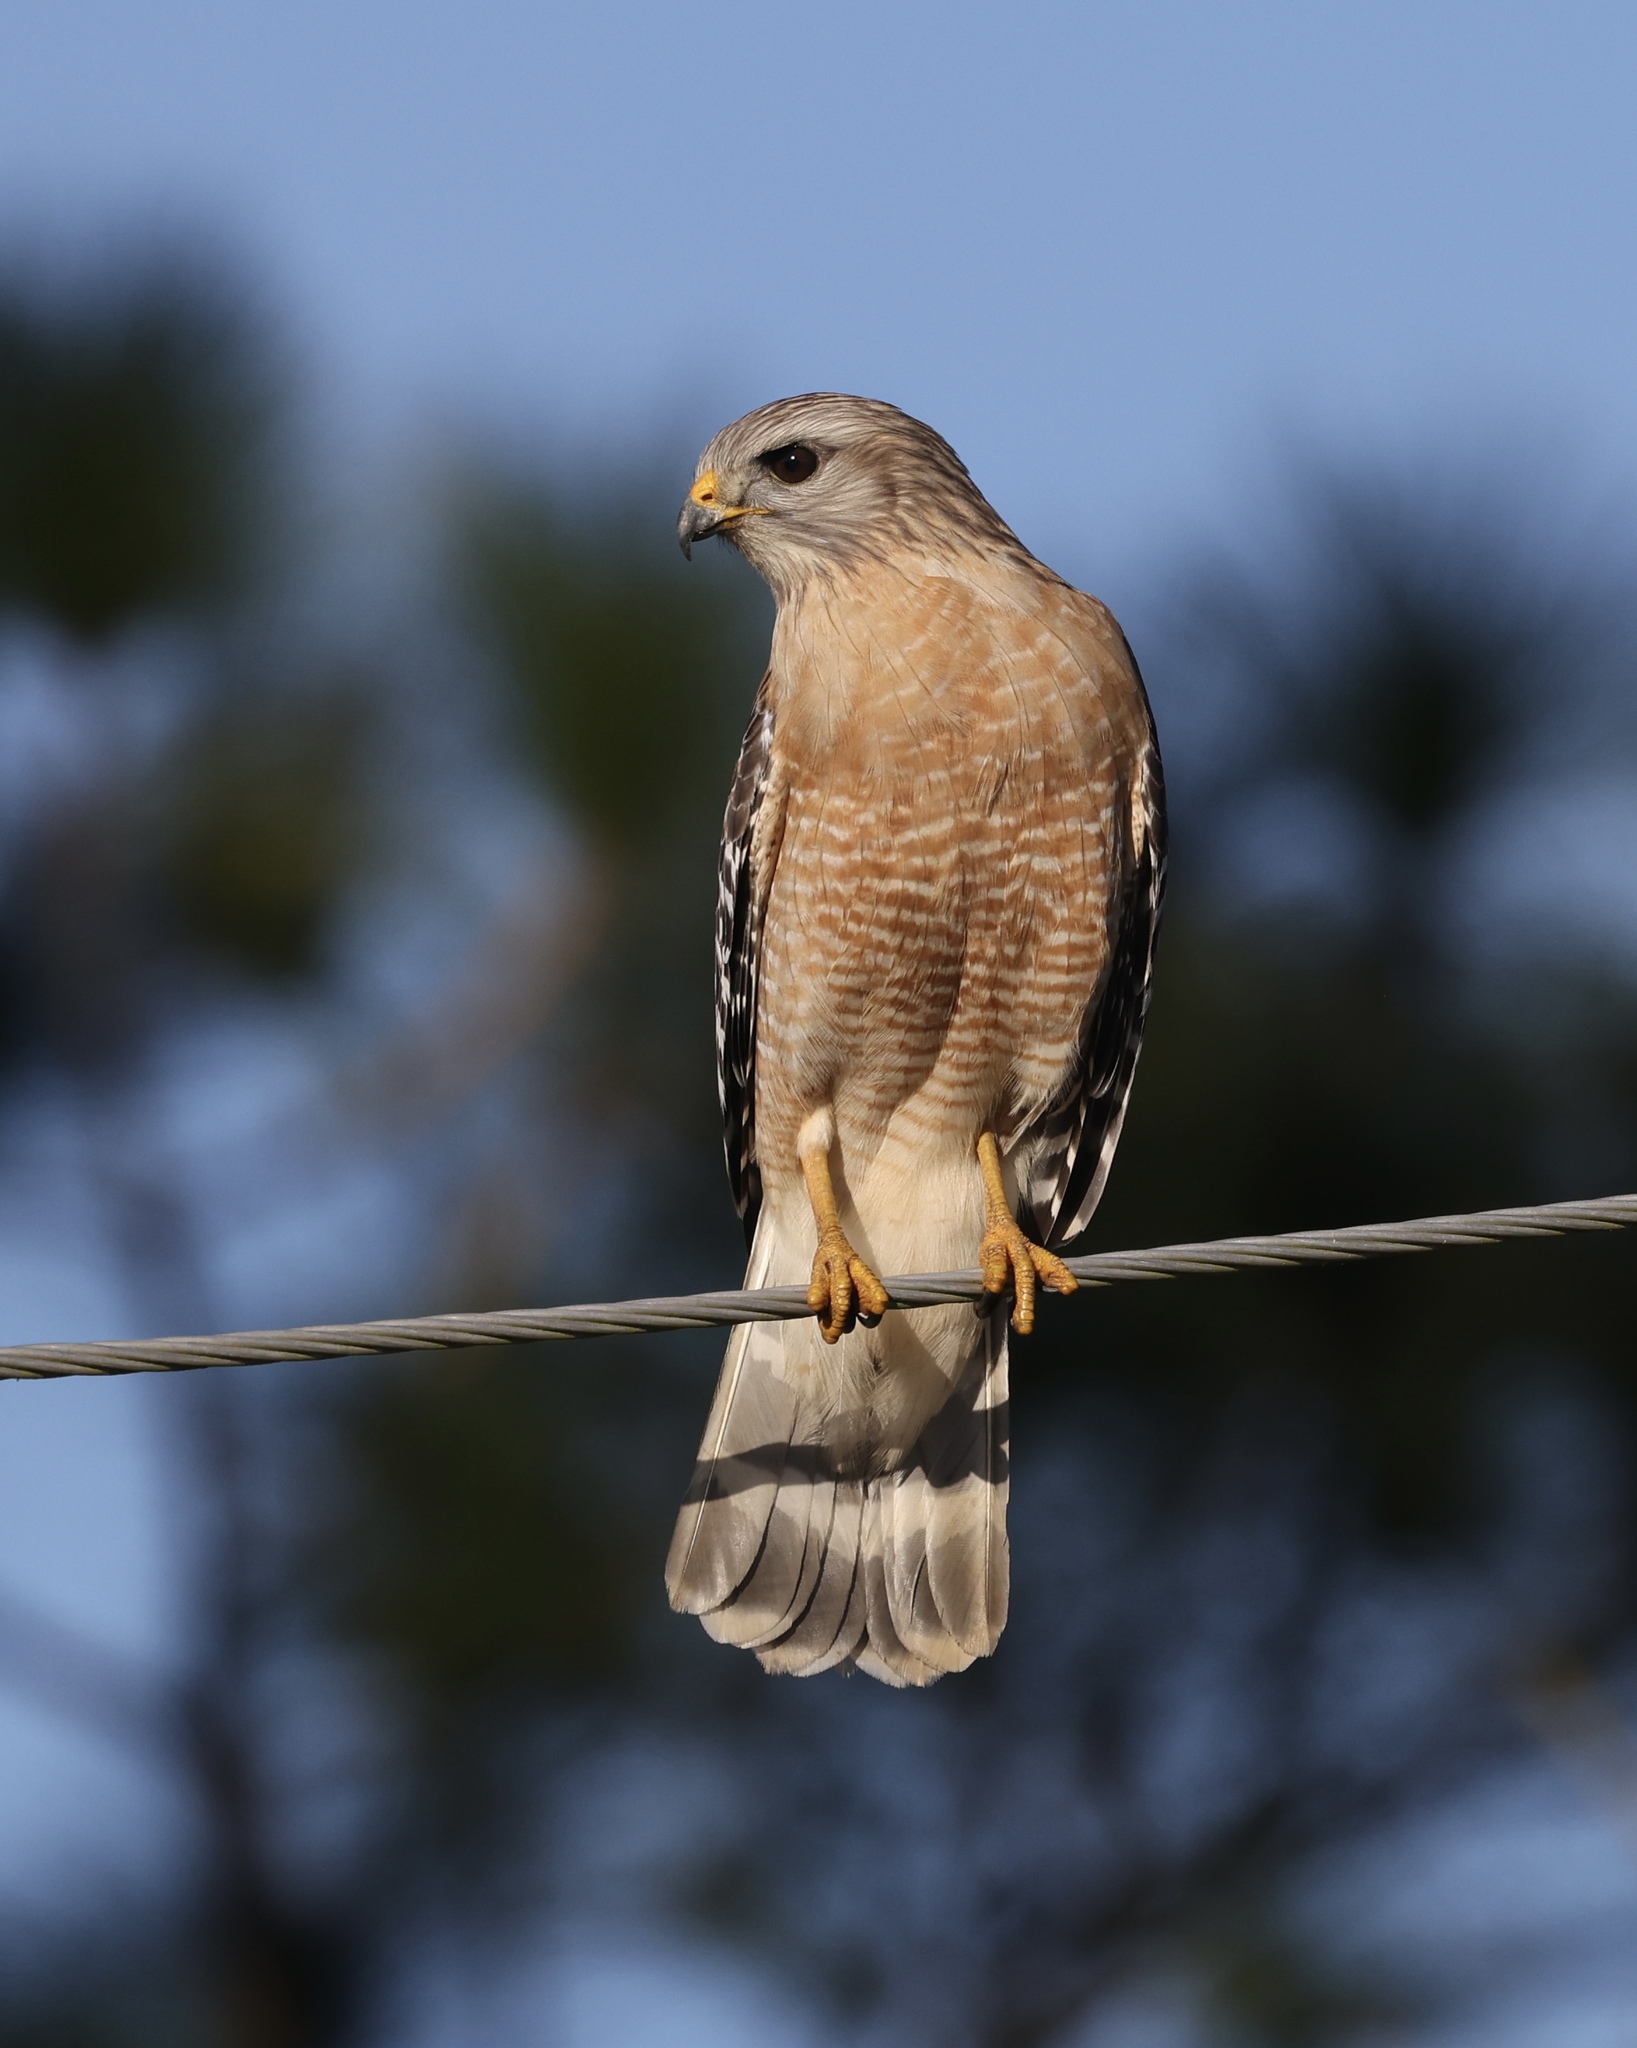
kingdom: Animalia
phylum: Chordata
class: Aves
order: Accipitriformes
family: Accipitridae
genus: Buteo
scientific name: Buteo lineatus
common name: Red-shouldered hawk
